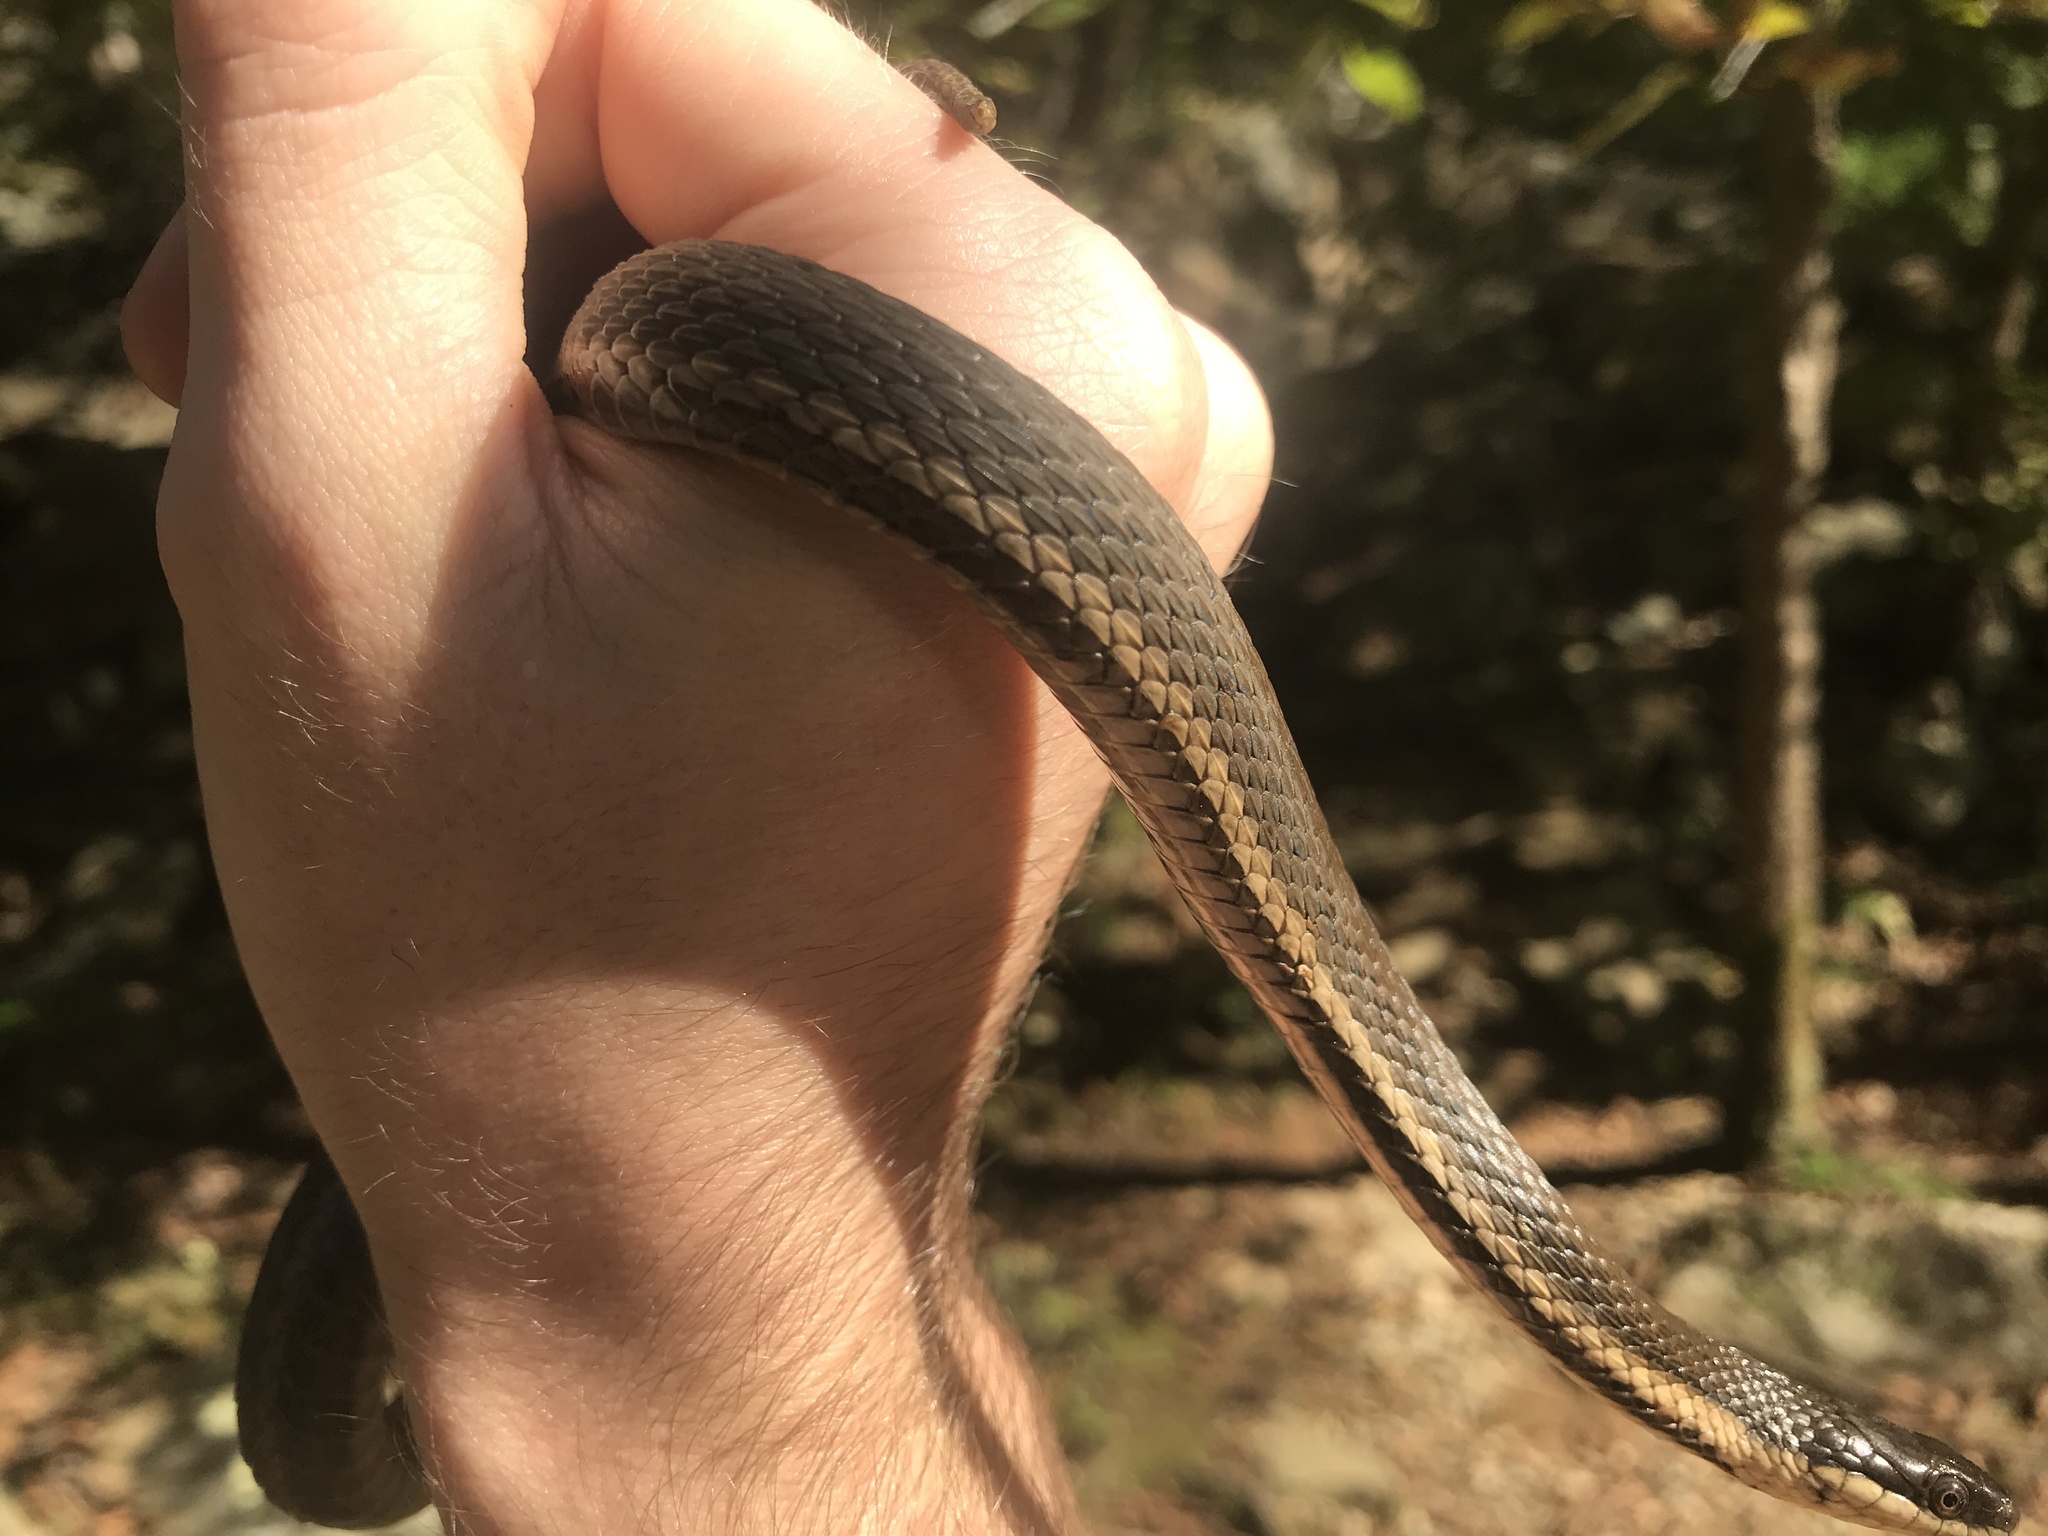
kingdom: Animalia
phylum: Chordata
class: Squamata
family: Colubridae
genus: Regina
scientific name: Regina septemvittata
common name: Queen snake
